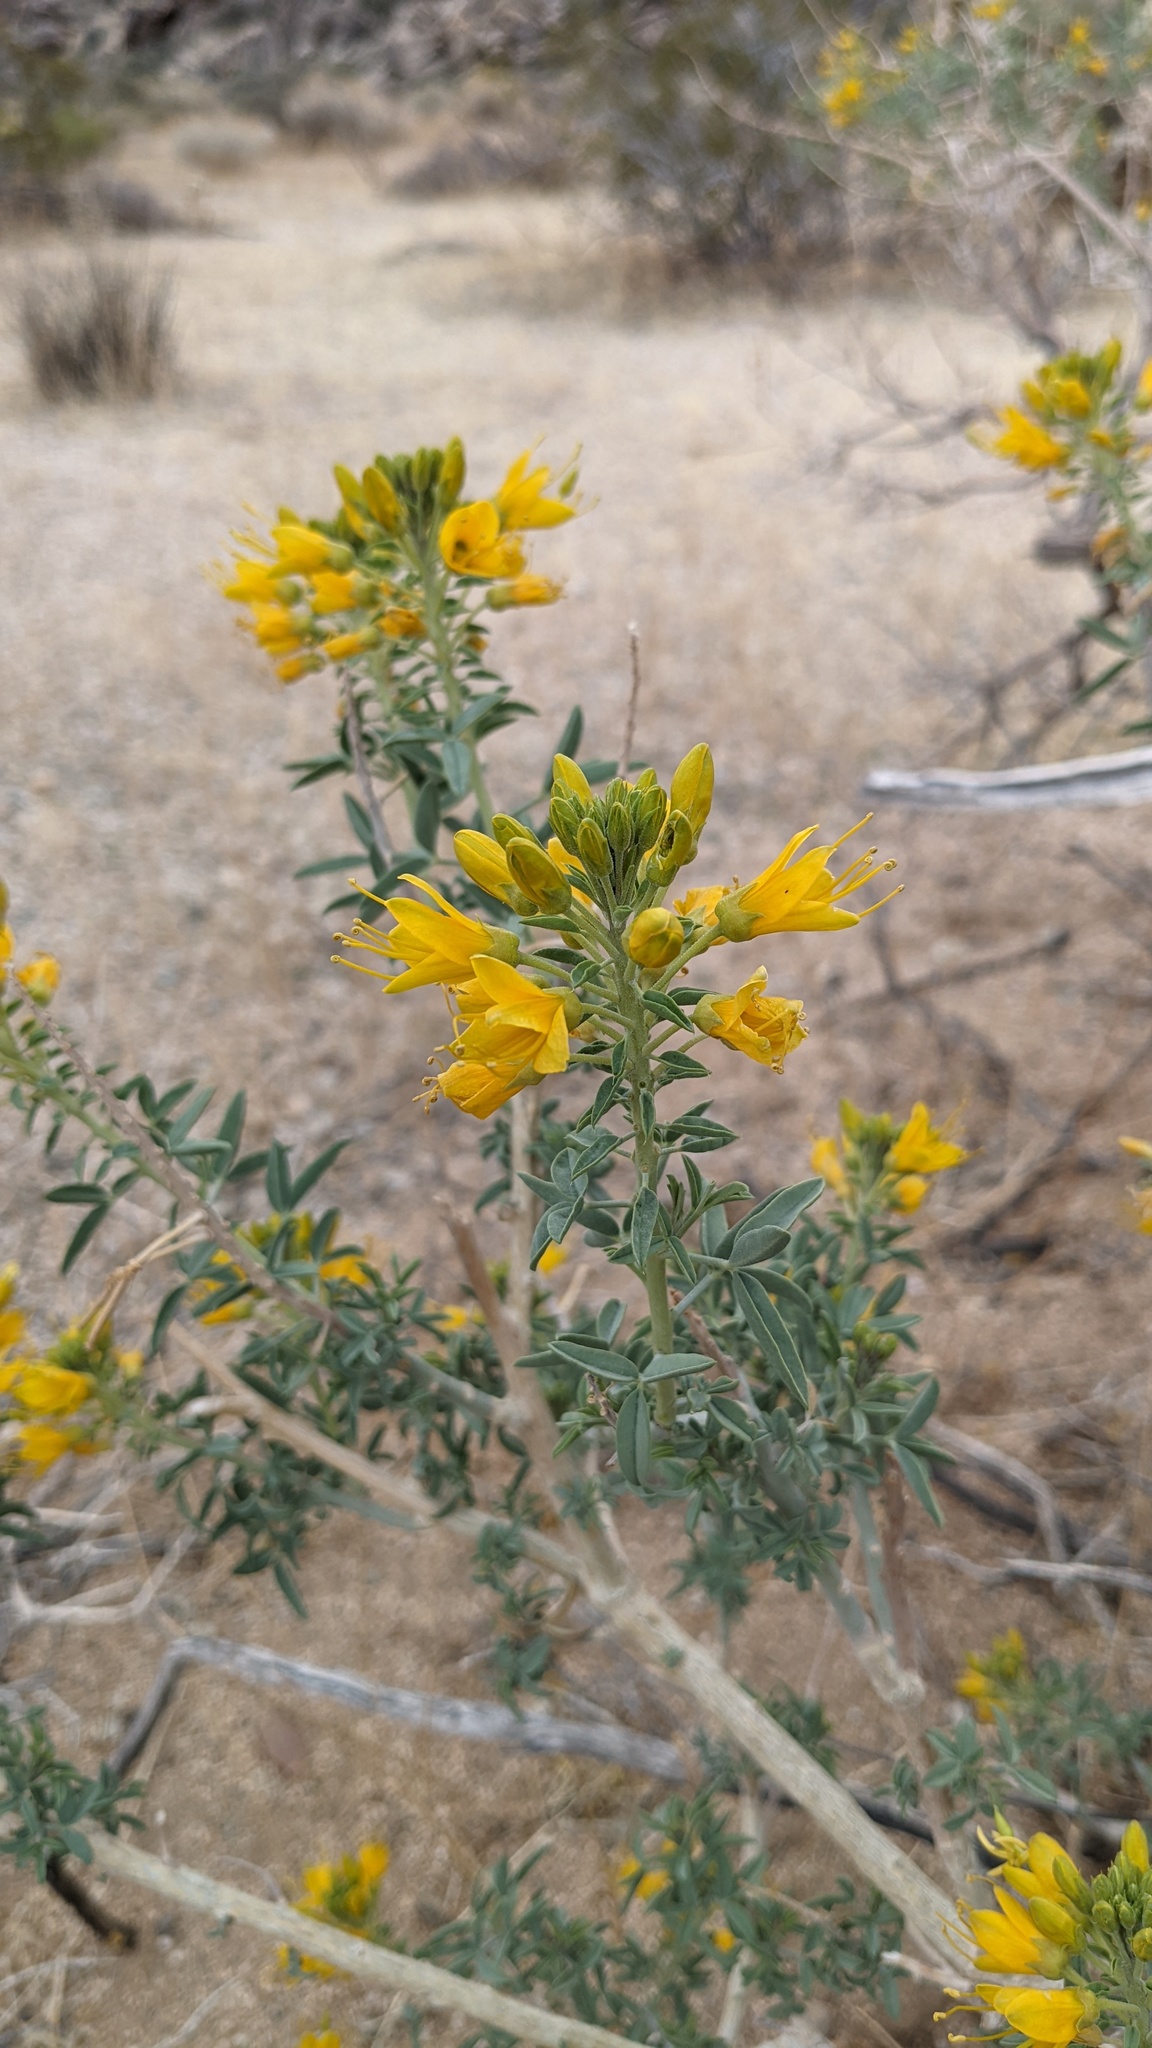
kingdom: Plantae
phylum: Tracheophyta
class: Magnoliopsida
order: Brassicales
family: Cleomaceae
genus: Cleomella
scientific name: Cleomella arborea
